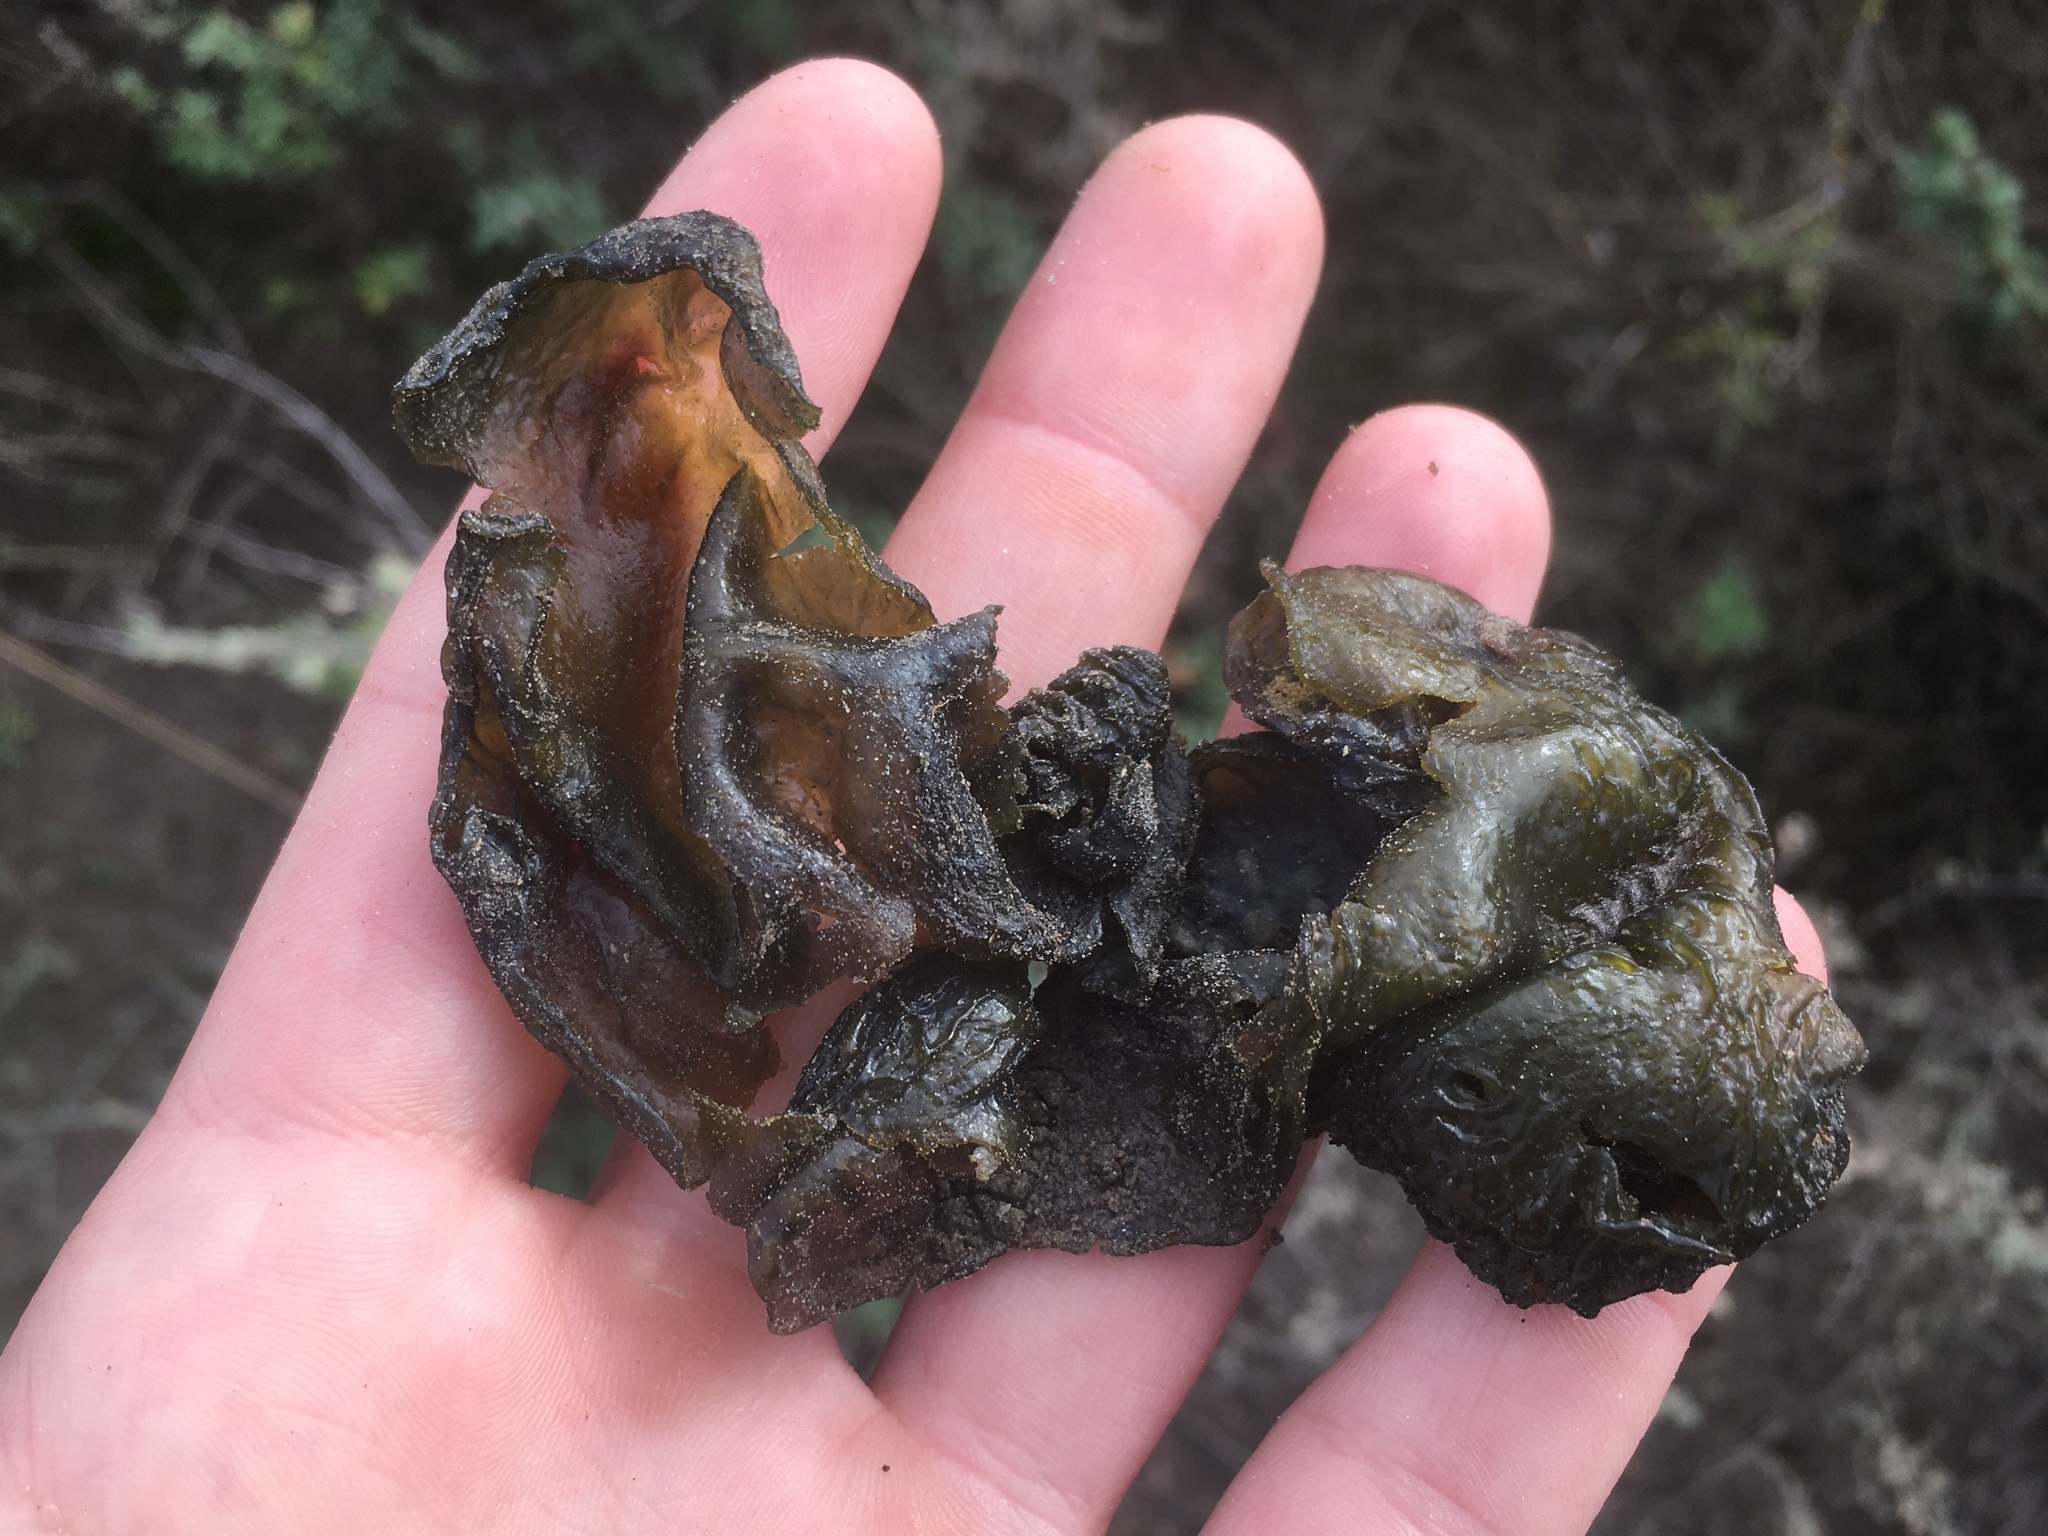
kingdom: Bacteria
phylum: Cyanobacteria
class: Cyanobacteriia
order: Cyanobacteriales
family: Nostocaceae
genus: Nostoc
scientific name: Nostoc commune
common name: Star jelly
